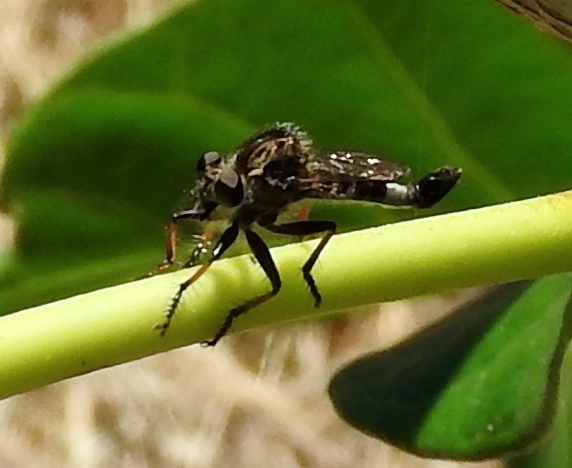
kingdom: Animalia
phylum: Arthropoda
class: Insecta
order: Diptera
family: Asilidae
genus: Efferia
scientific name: Efferia
